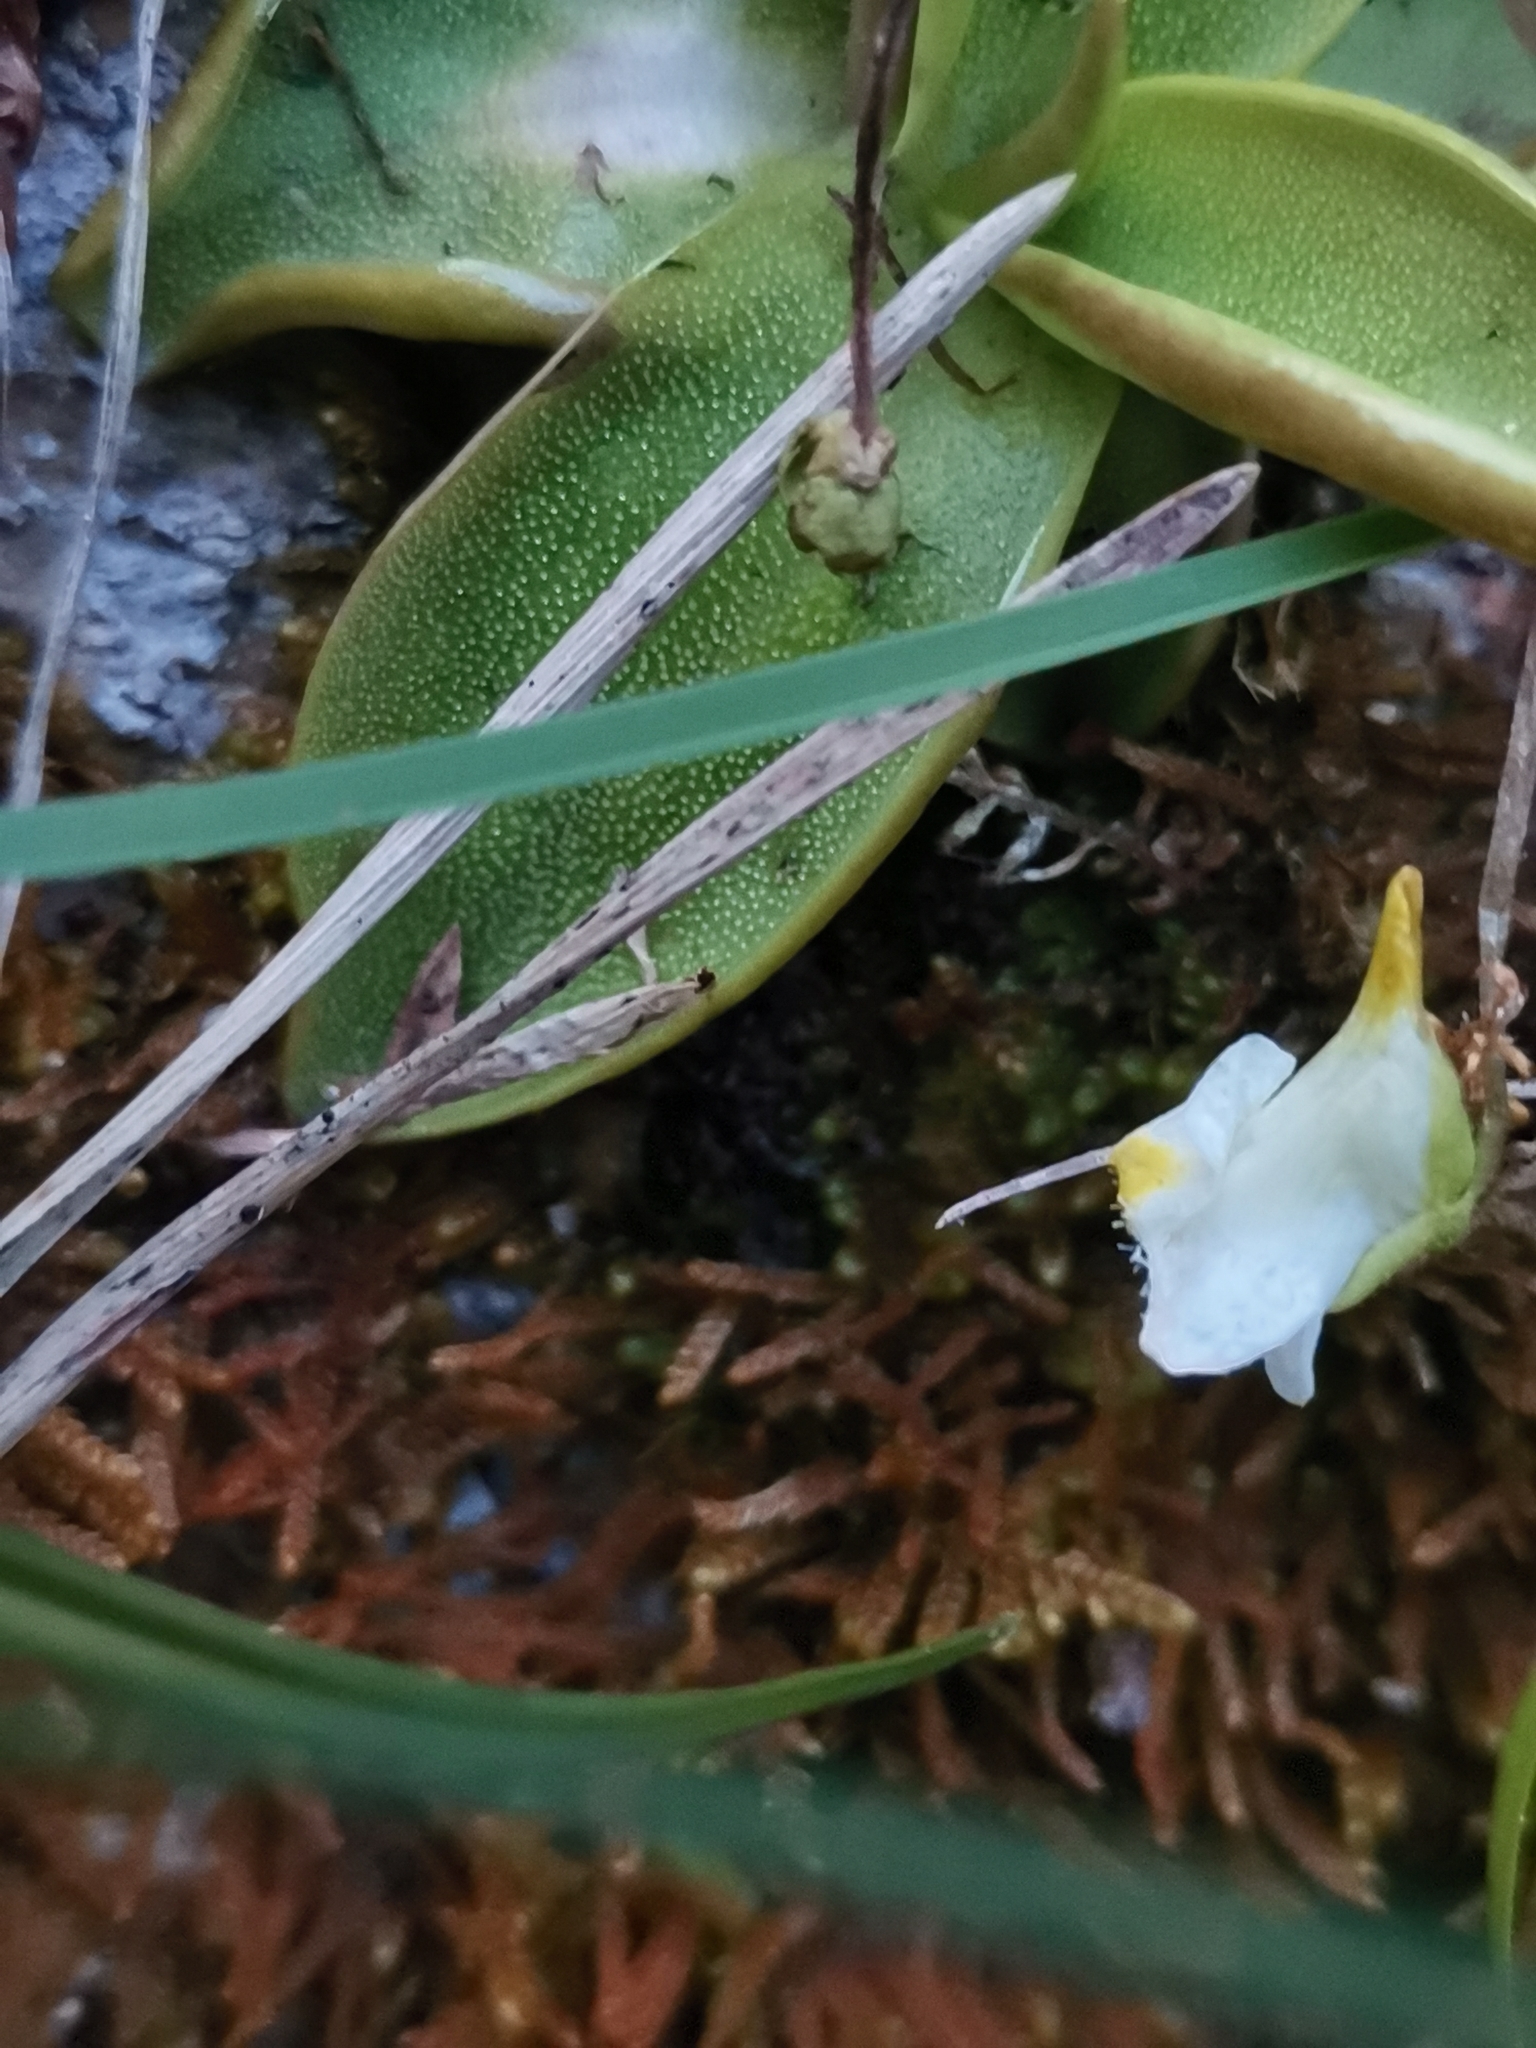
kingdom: Plantae
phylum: Tracheophyta
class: Magnoliopsida
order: Lamiales
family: Lentibulariaceae
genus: Pinguicula
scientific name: Pinguicula alpina
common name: Alpine butterwort
